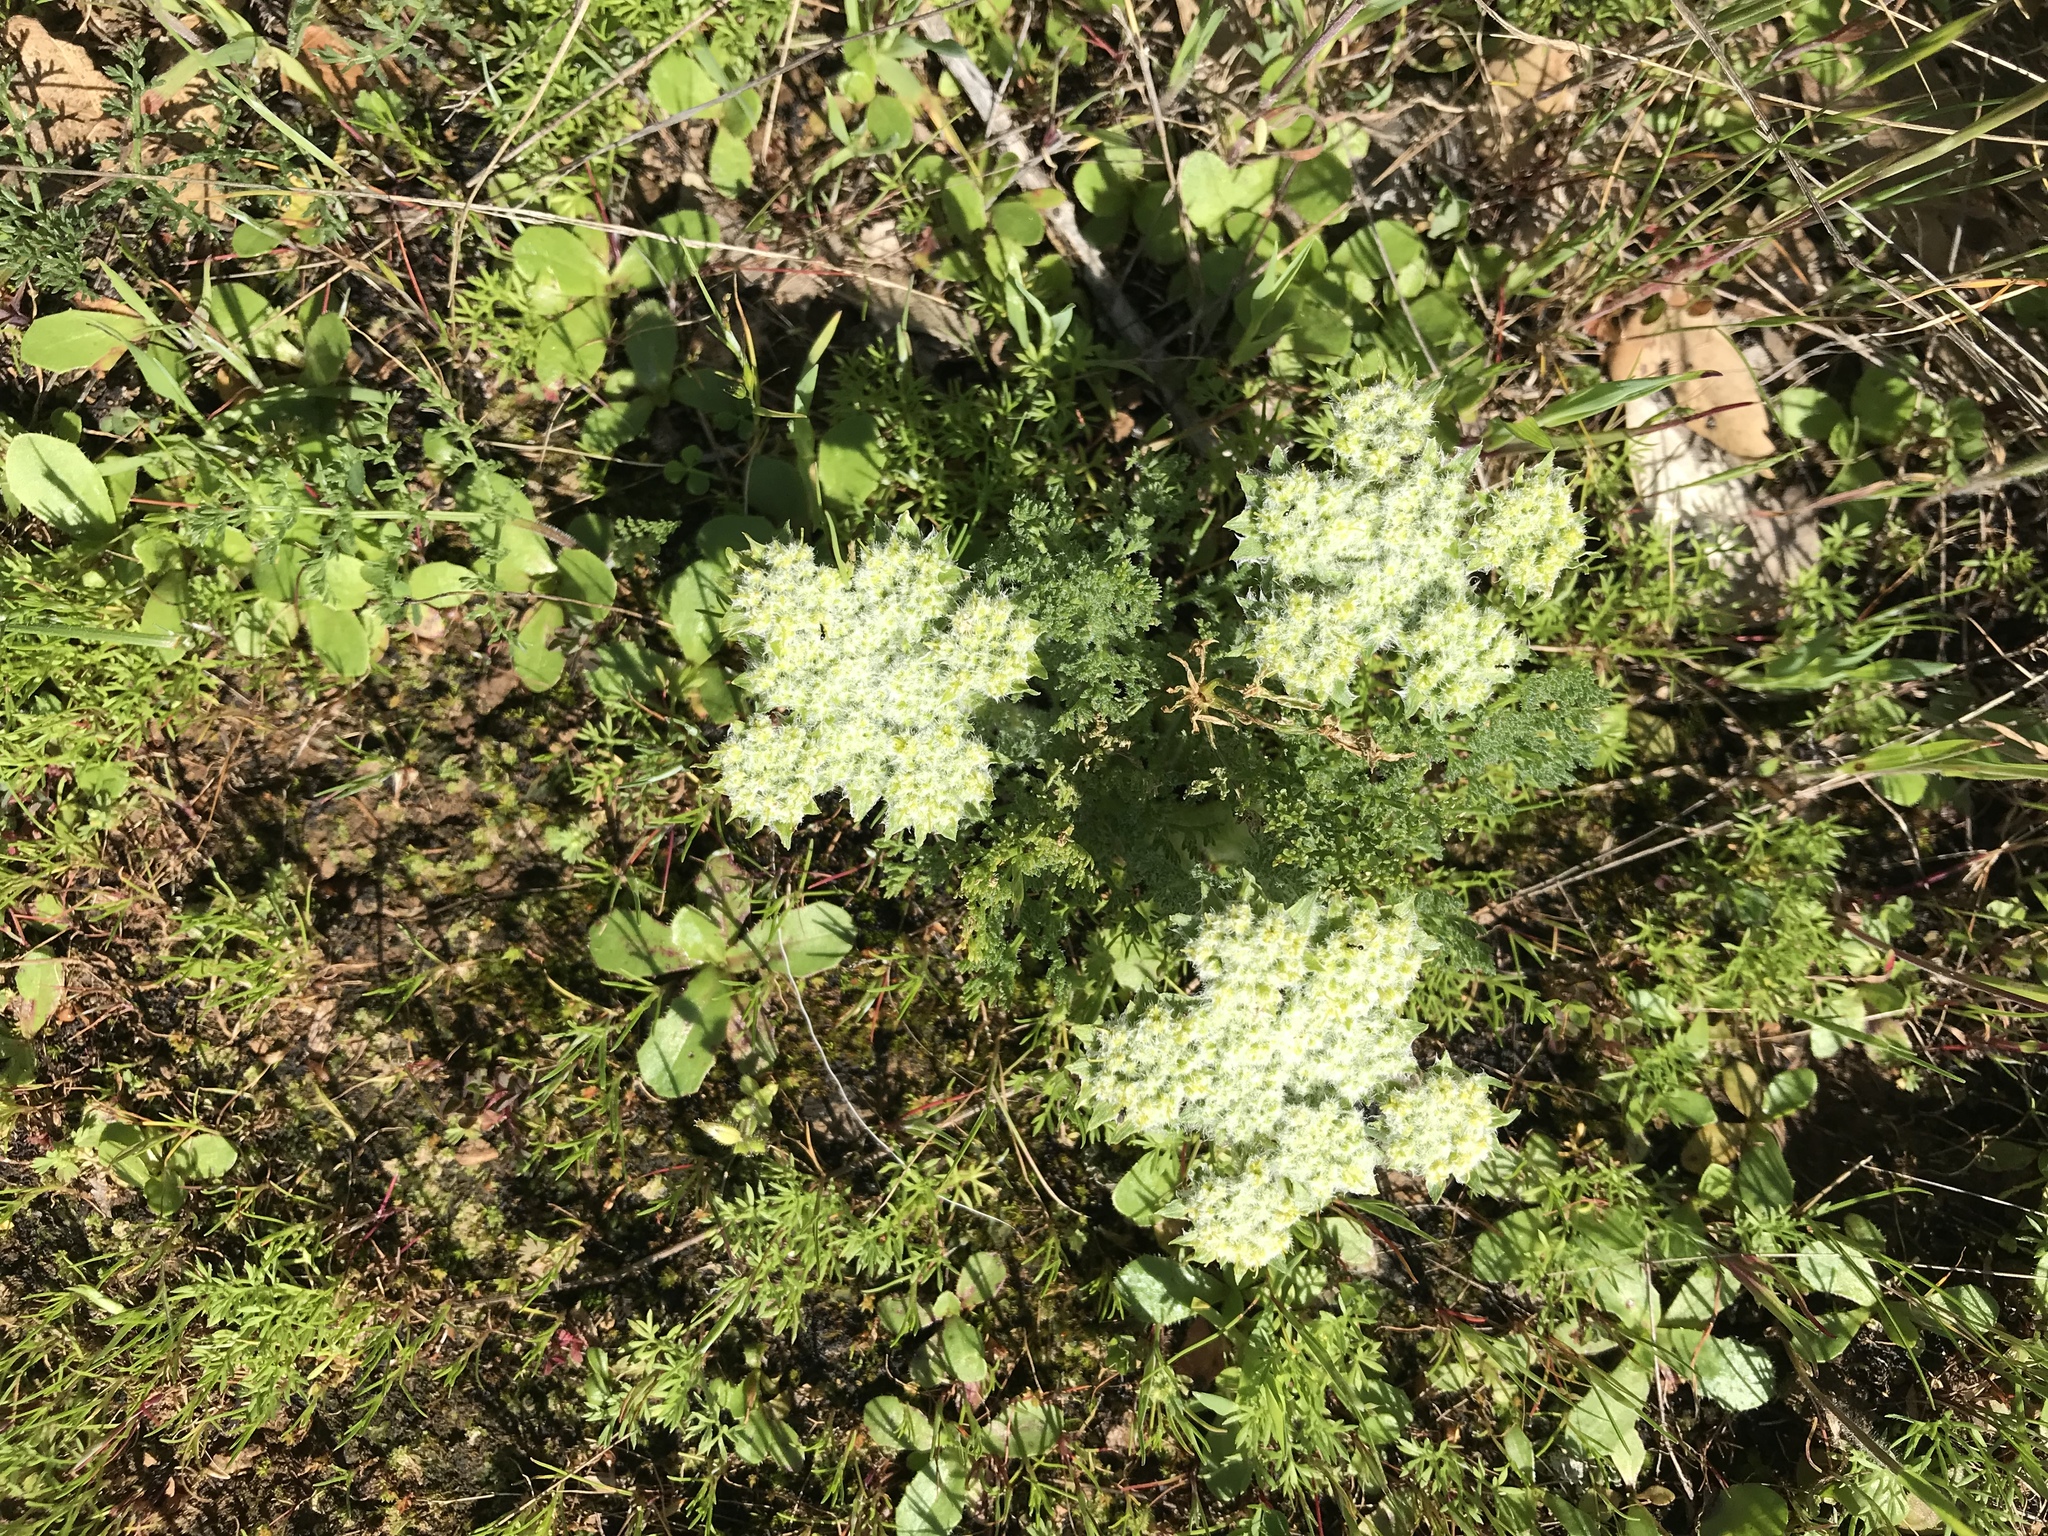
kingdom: Plantae
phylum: Tracheophyta
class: Magnoliopsida
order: Apiales
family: Apiaceae
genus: Lomatium
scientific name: Lomatium dasycarpum
